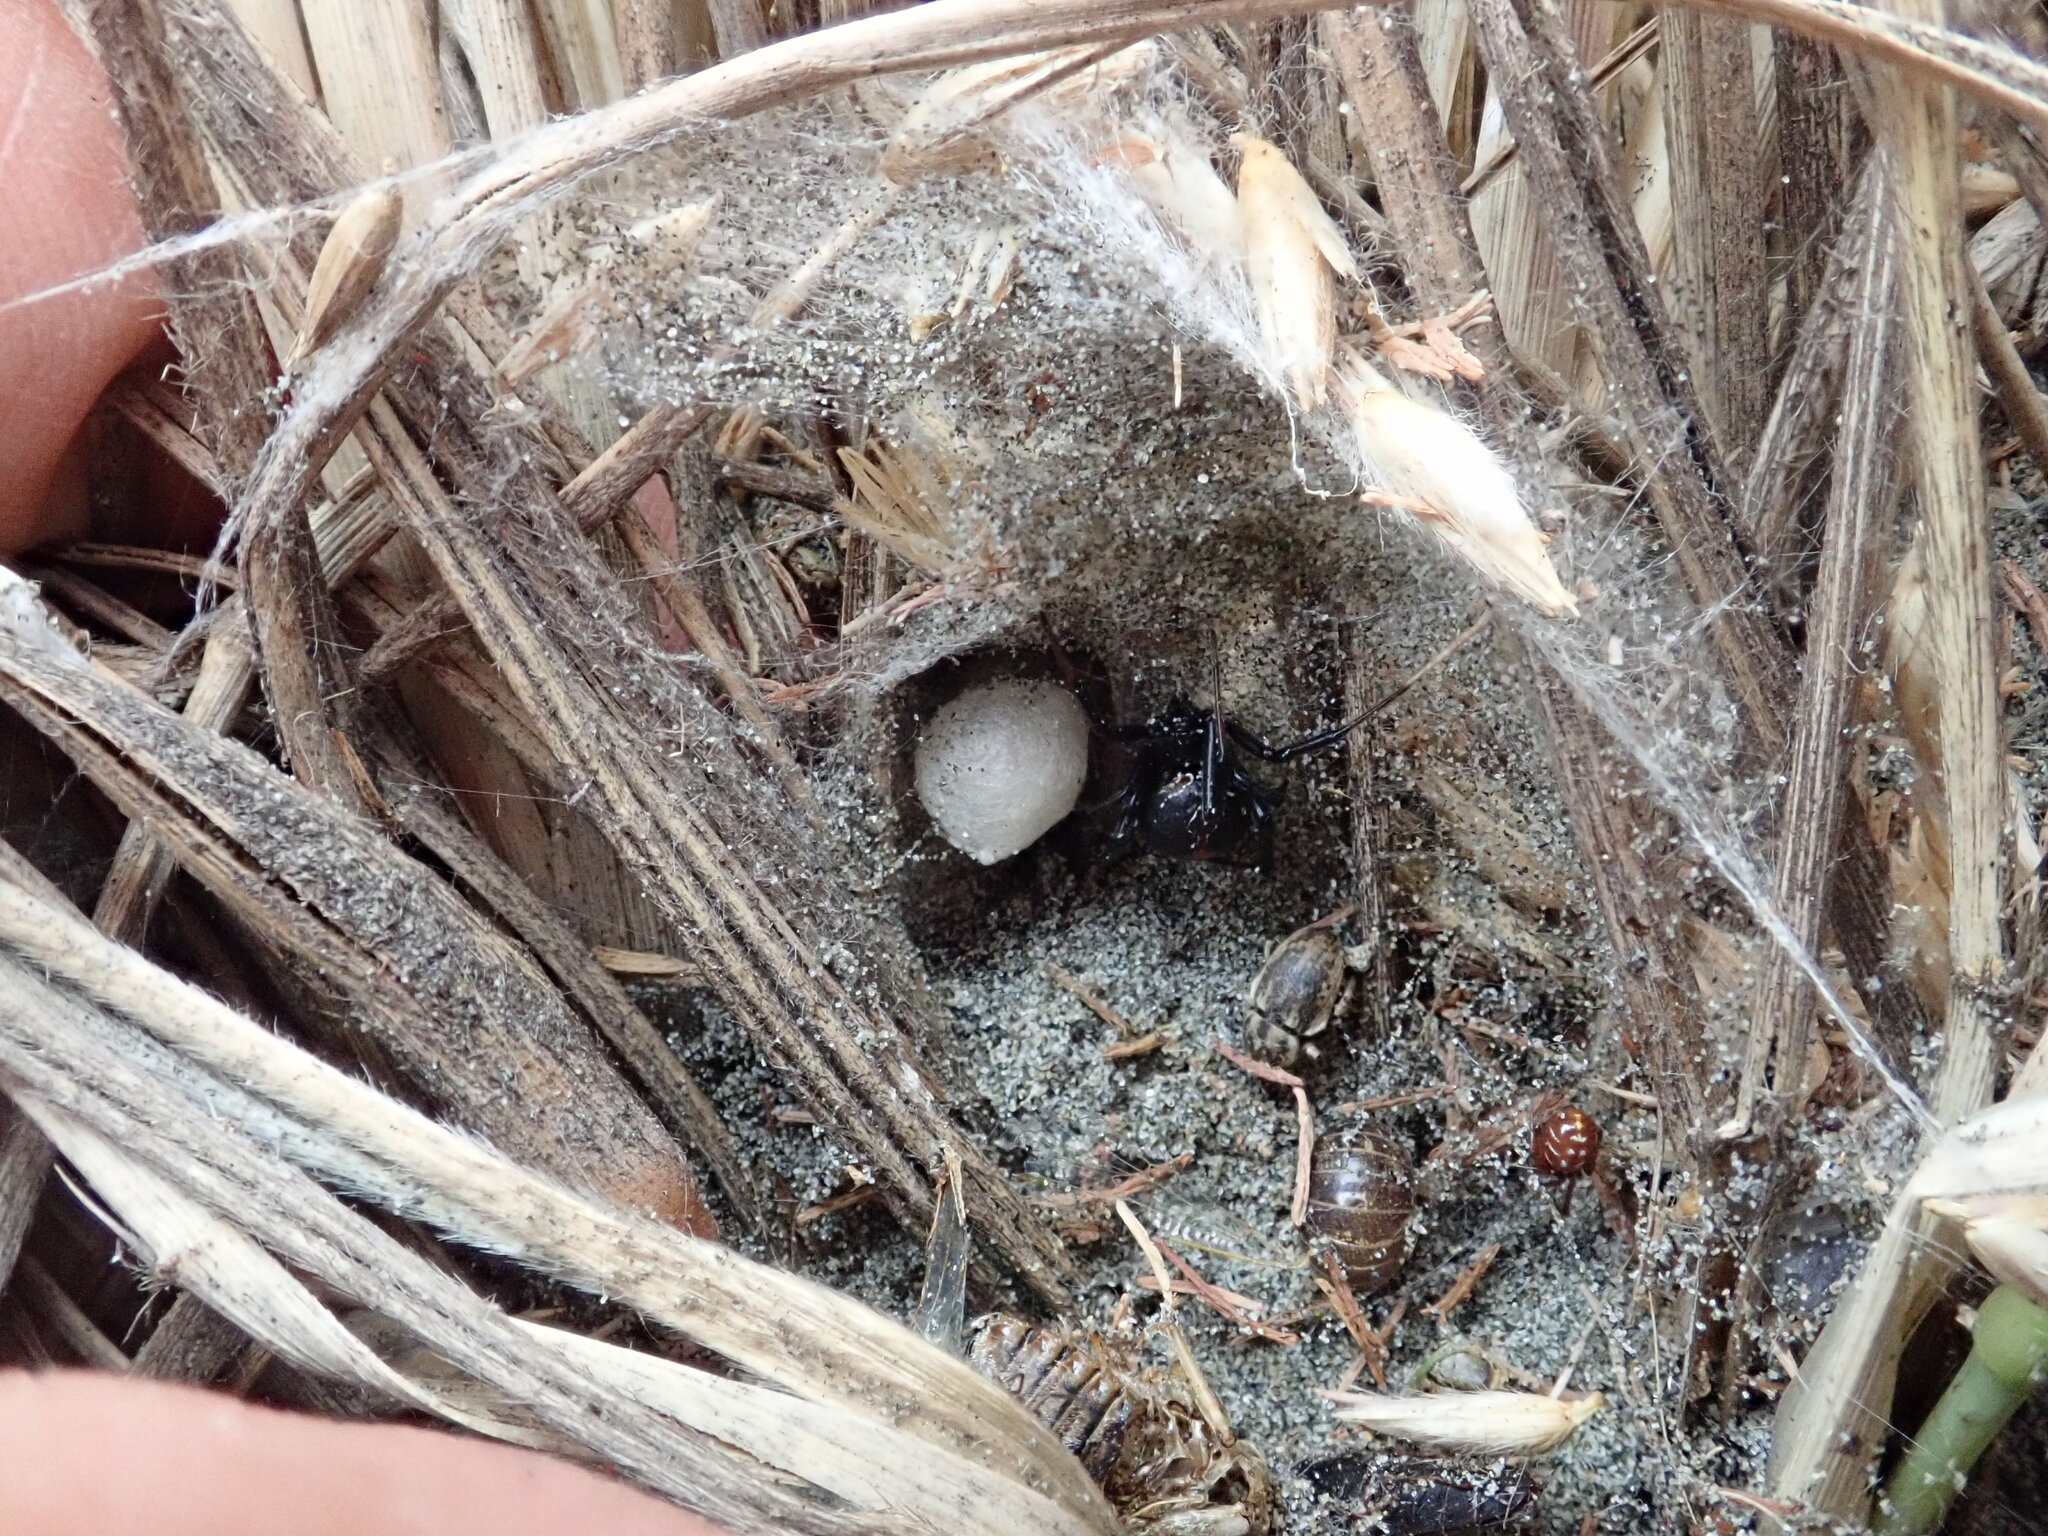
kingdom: Animalia
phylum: Arthropoda
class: Arachnida
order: Araneae
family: Theridiidae
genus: Latrodectus
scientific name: Latrodectus katipo
